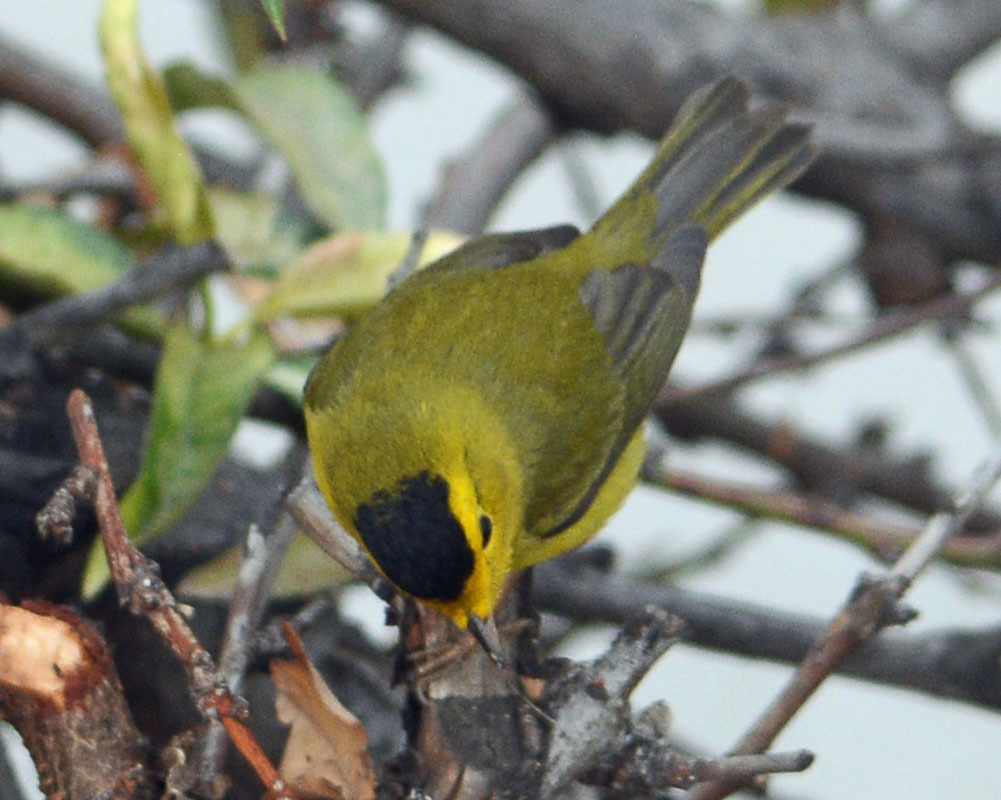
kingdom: Animalia
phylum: Chordata
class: Aves
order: Passeriformes
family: Parulidae
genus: Cardellina
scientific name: Cardellina pusilla
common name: Wilson's warbler
